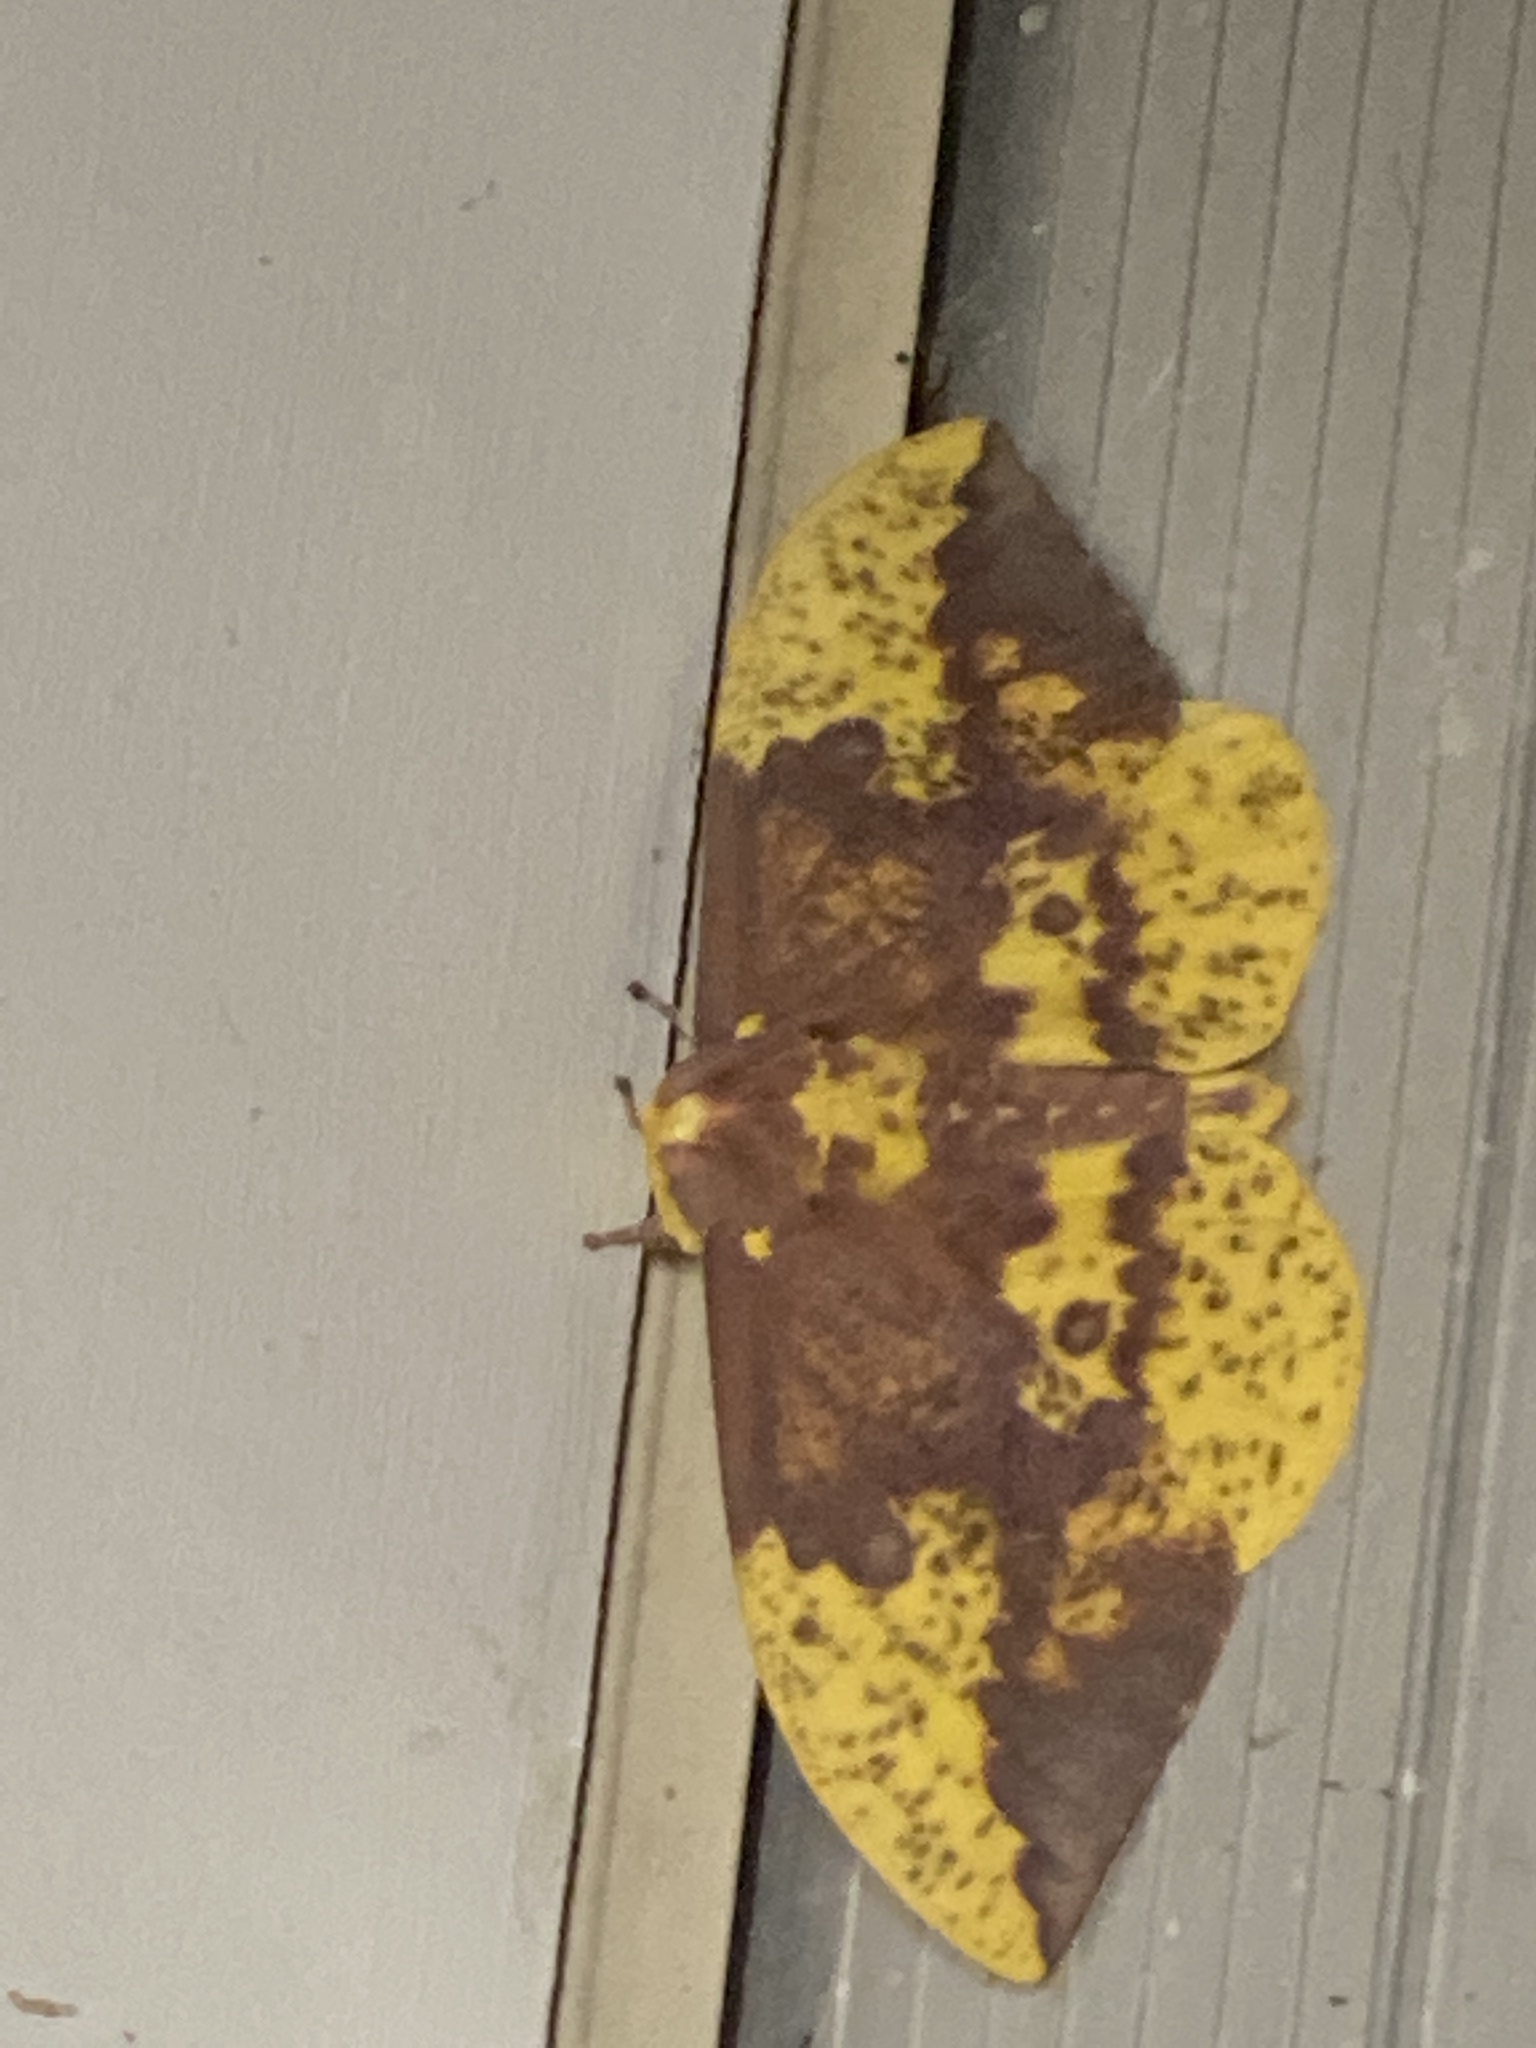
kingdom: Animalia
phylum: Arthropoda
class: Insecta
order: Lepidoptera
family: Saturniidae
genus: Eacles
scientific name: Eacles imperialis
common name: Imperial moth
